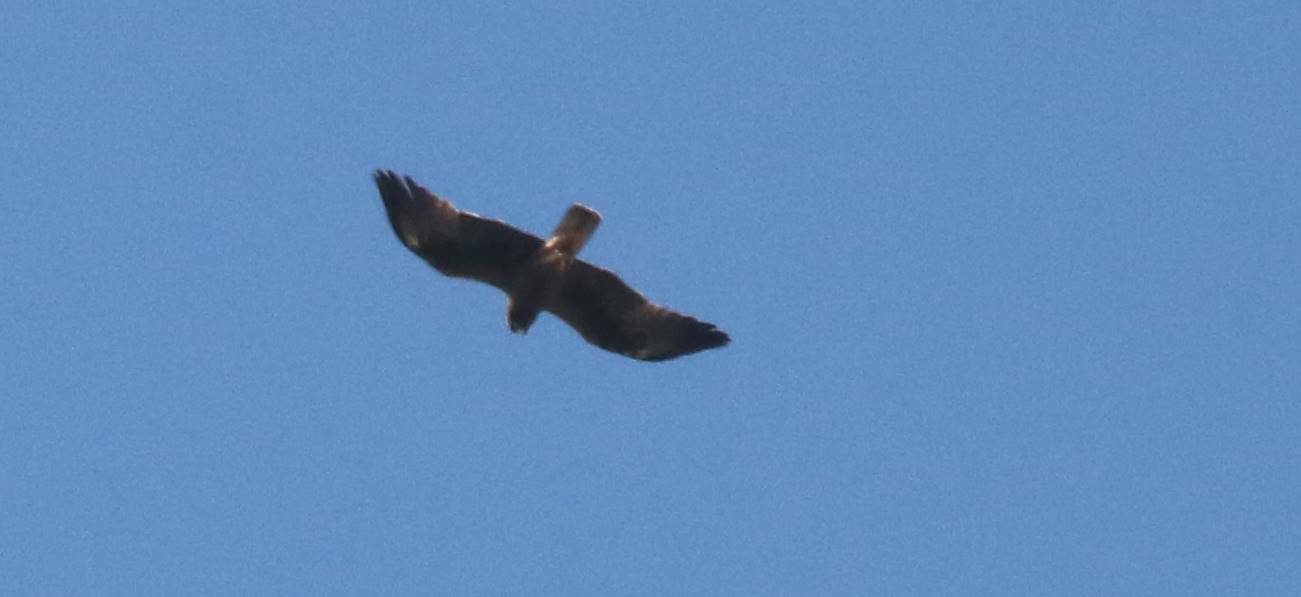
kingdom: Animalia
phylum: Chordata
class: Aves
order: Accipitriformes
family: Accipitridae
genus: Hieraaetus
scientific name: Hieraaetus pennatus
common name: Booted eagle
